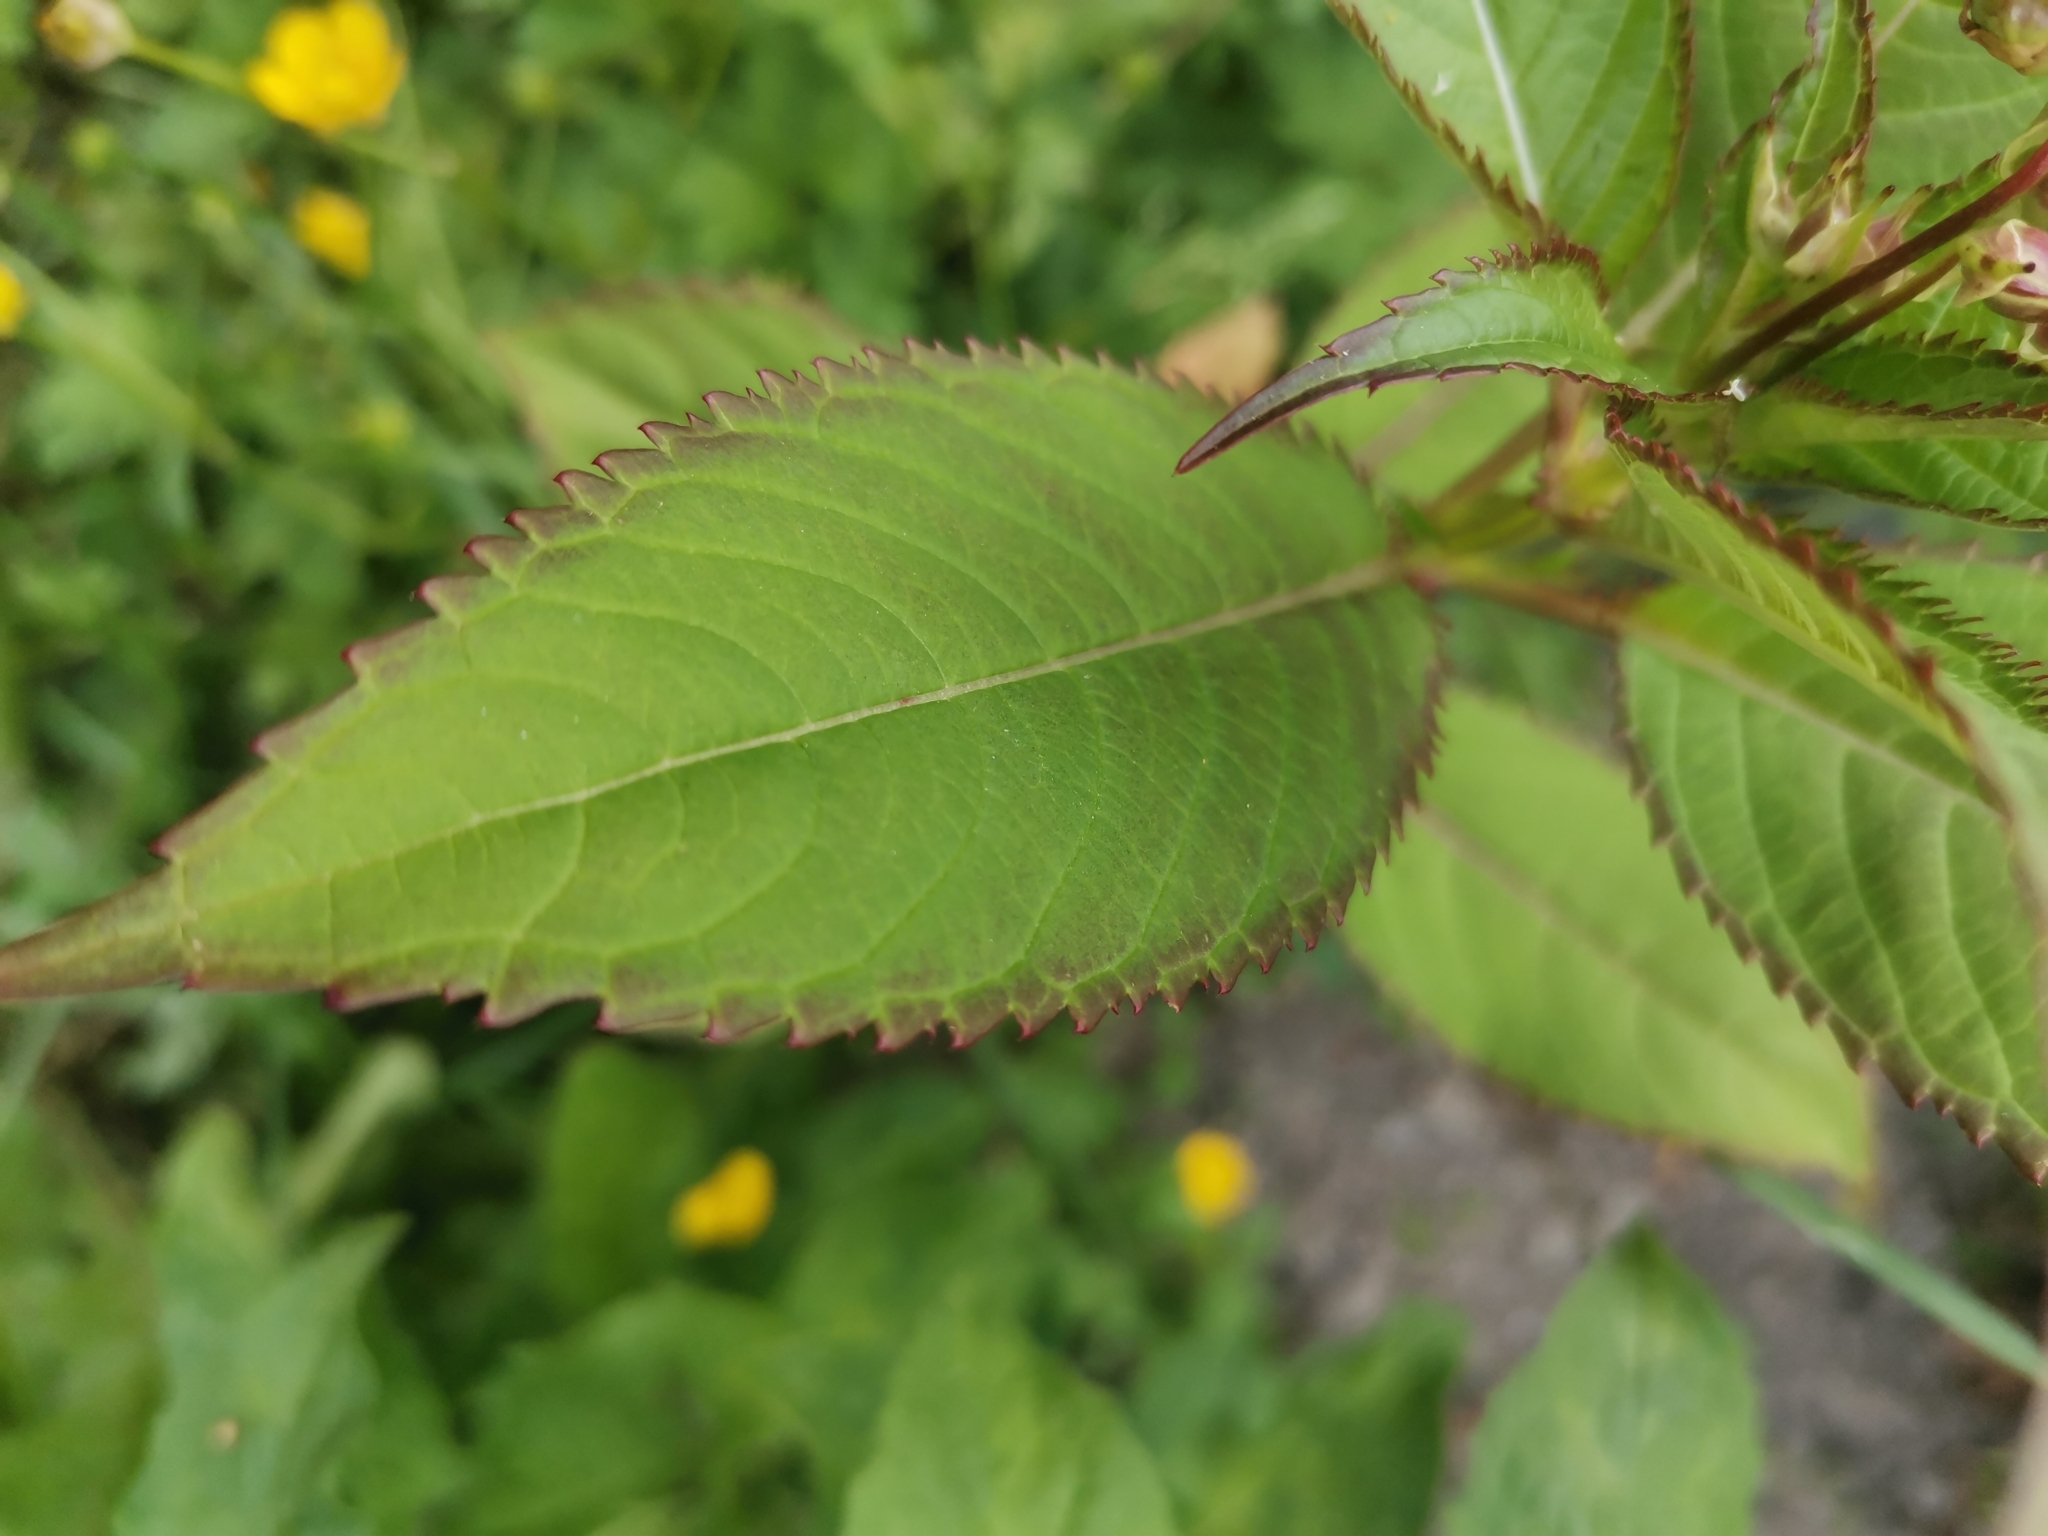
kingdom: Plantae
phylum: Tracheophyta
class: Magnoliopsida
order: Ericales
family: Balsaminaceae
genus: Impatiens
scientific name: Impatiens glandulifera
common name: Himalayan balsam
